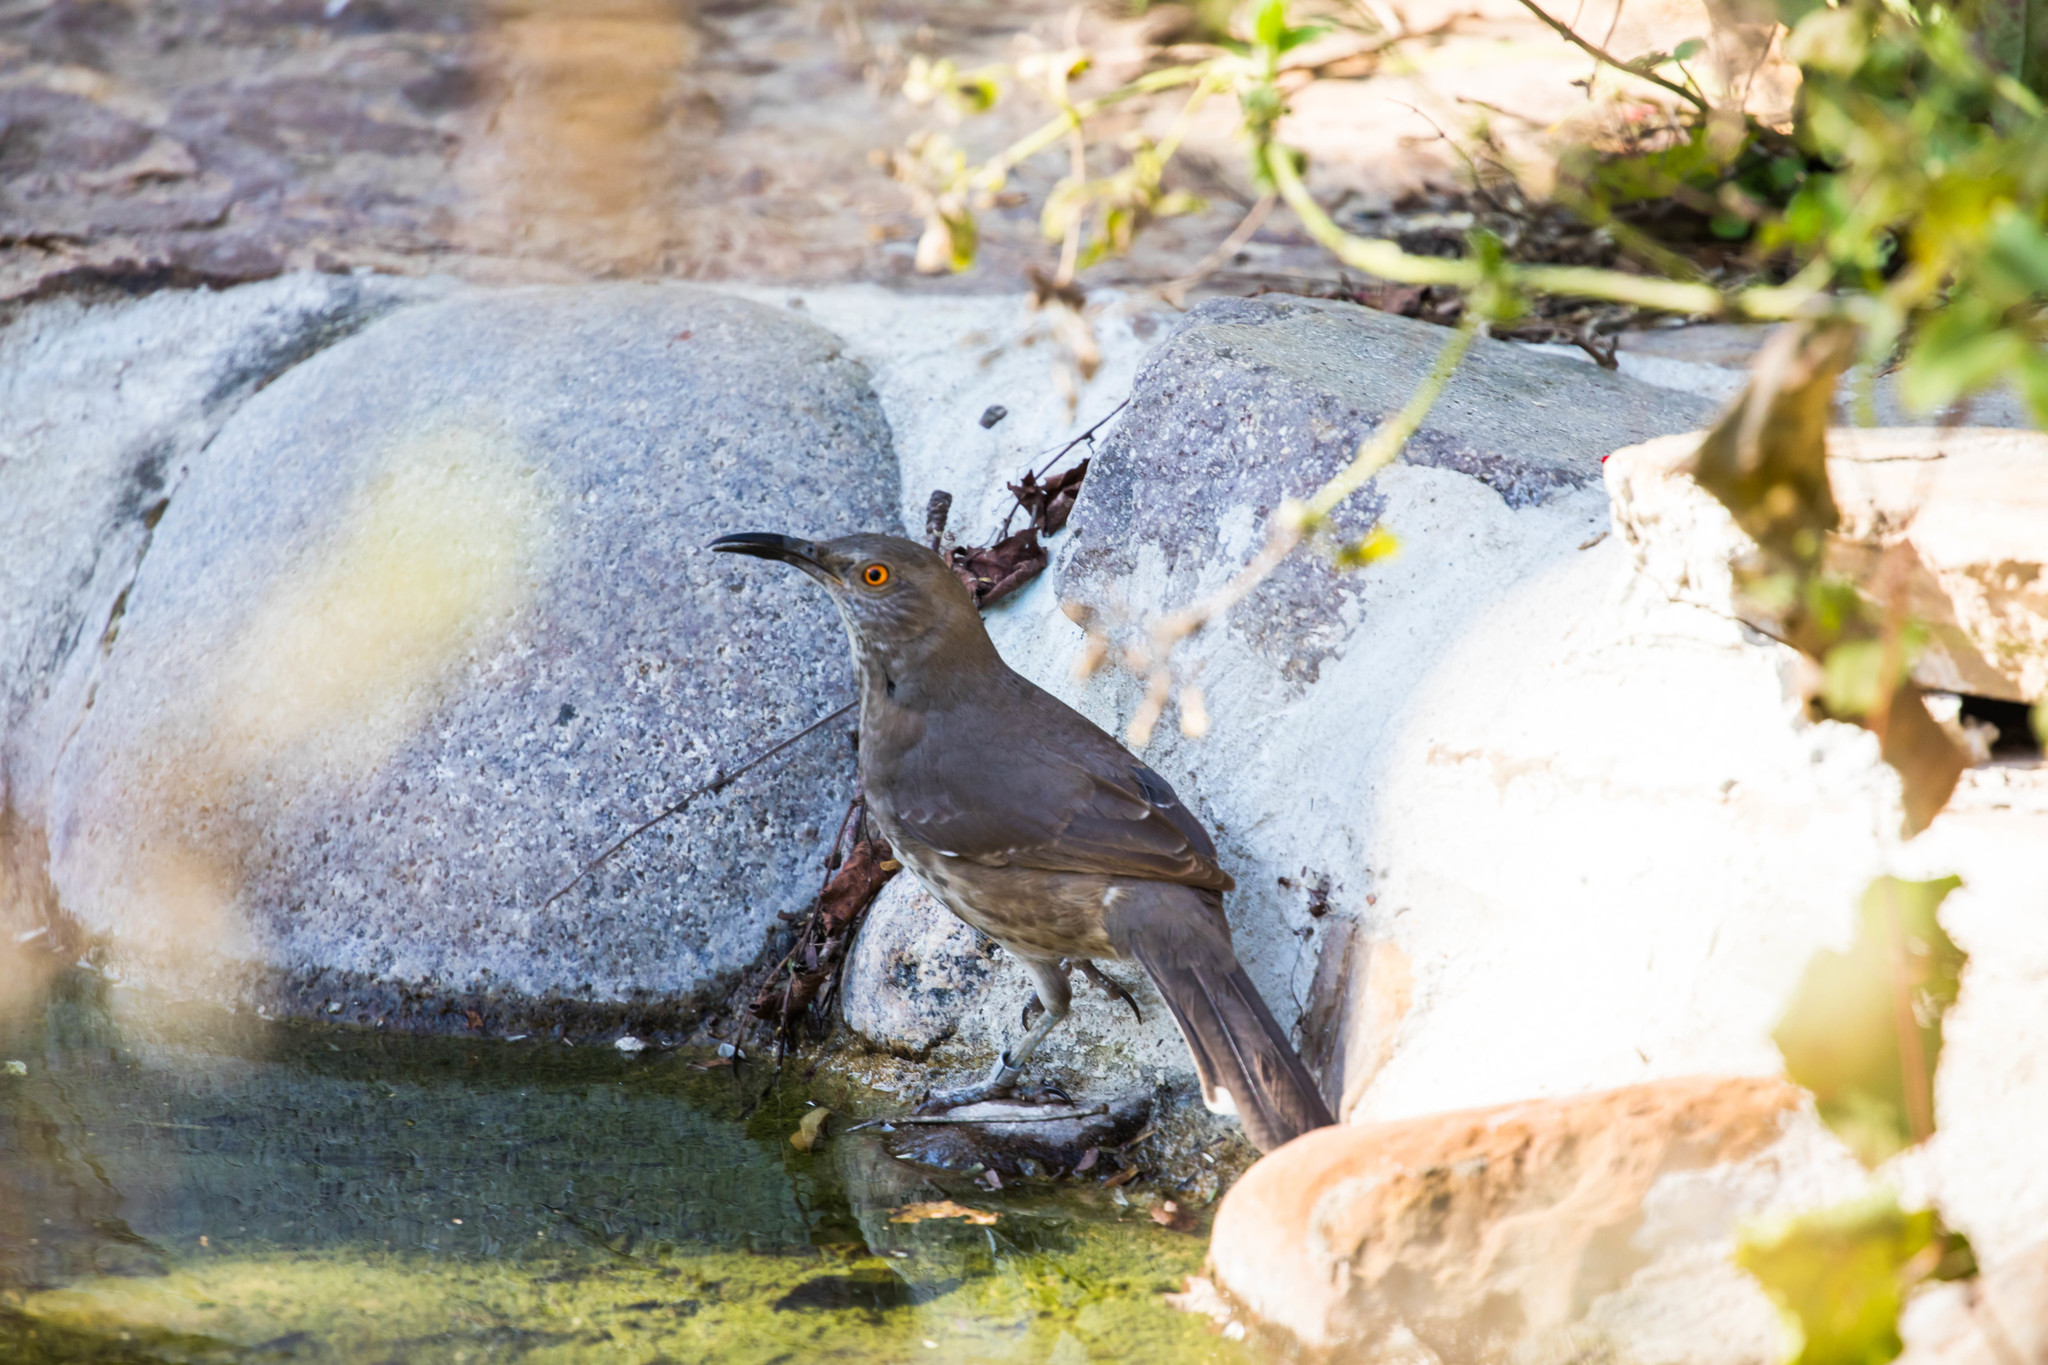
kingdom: Animalia
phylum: Chordata
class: Aves
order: Passeriformes
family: Mimidae
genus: Toxostoma
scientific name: Toxostoma curvirostre
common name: Curve-billed thrasher
